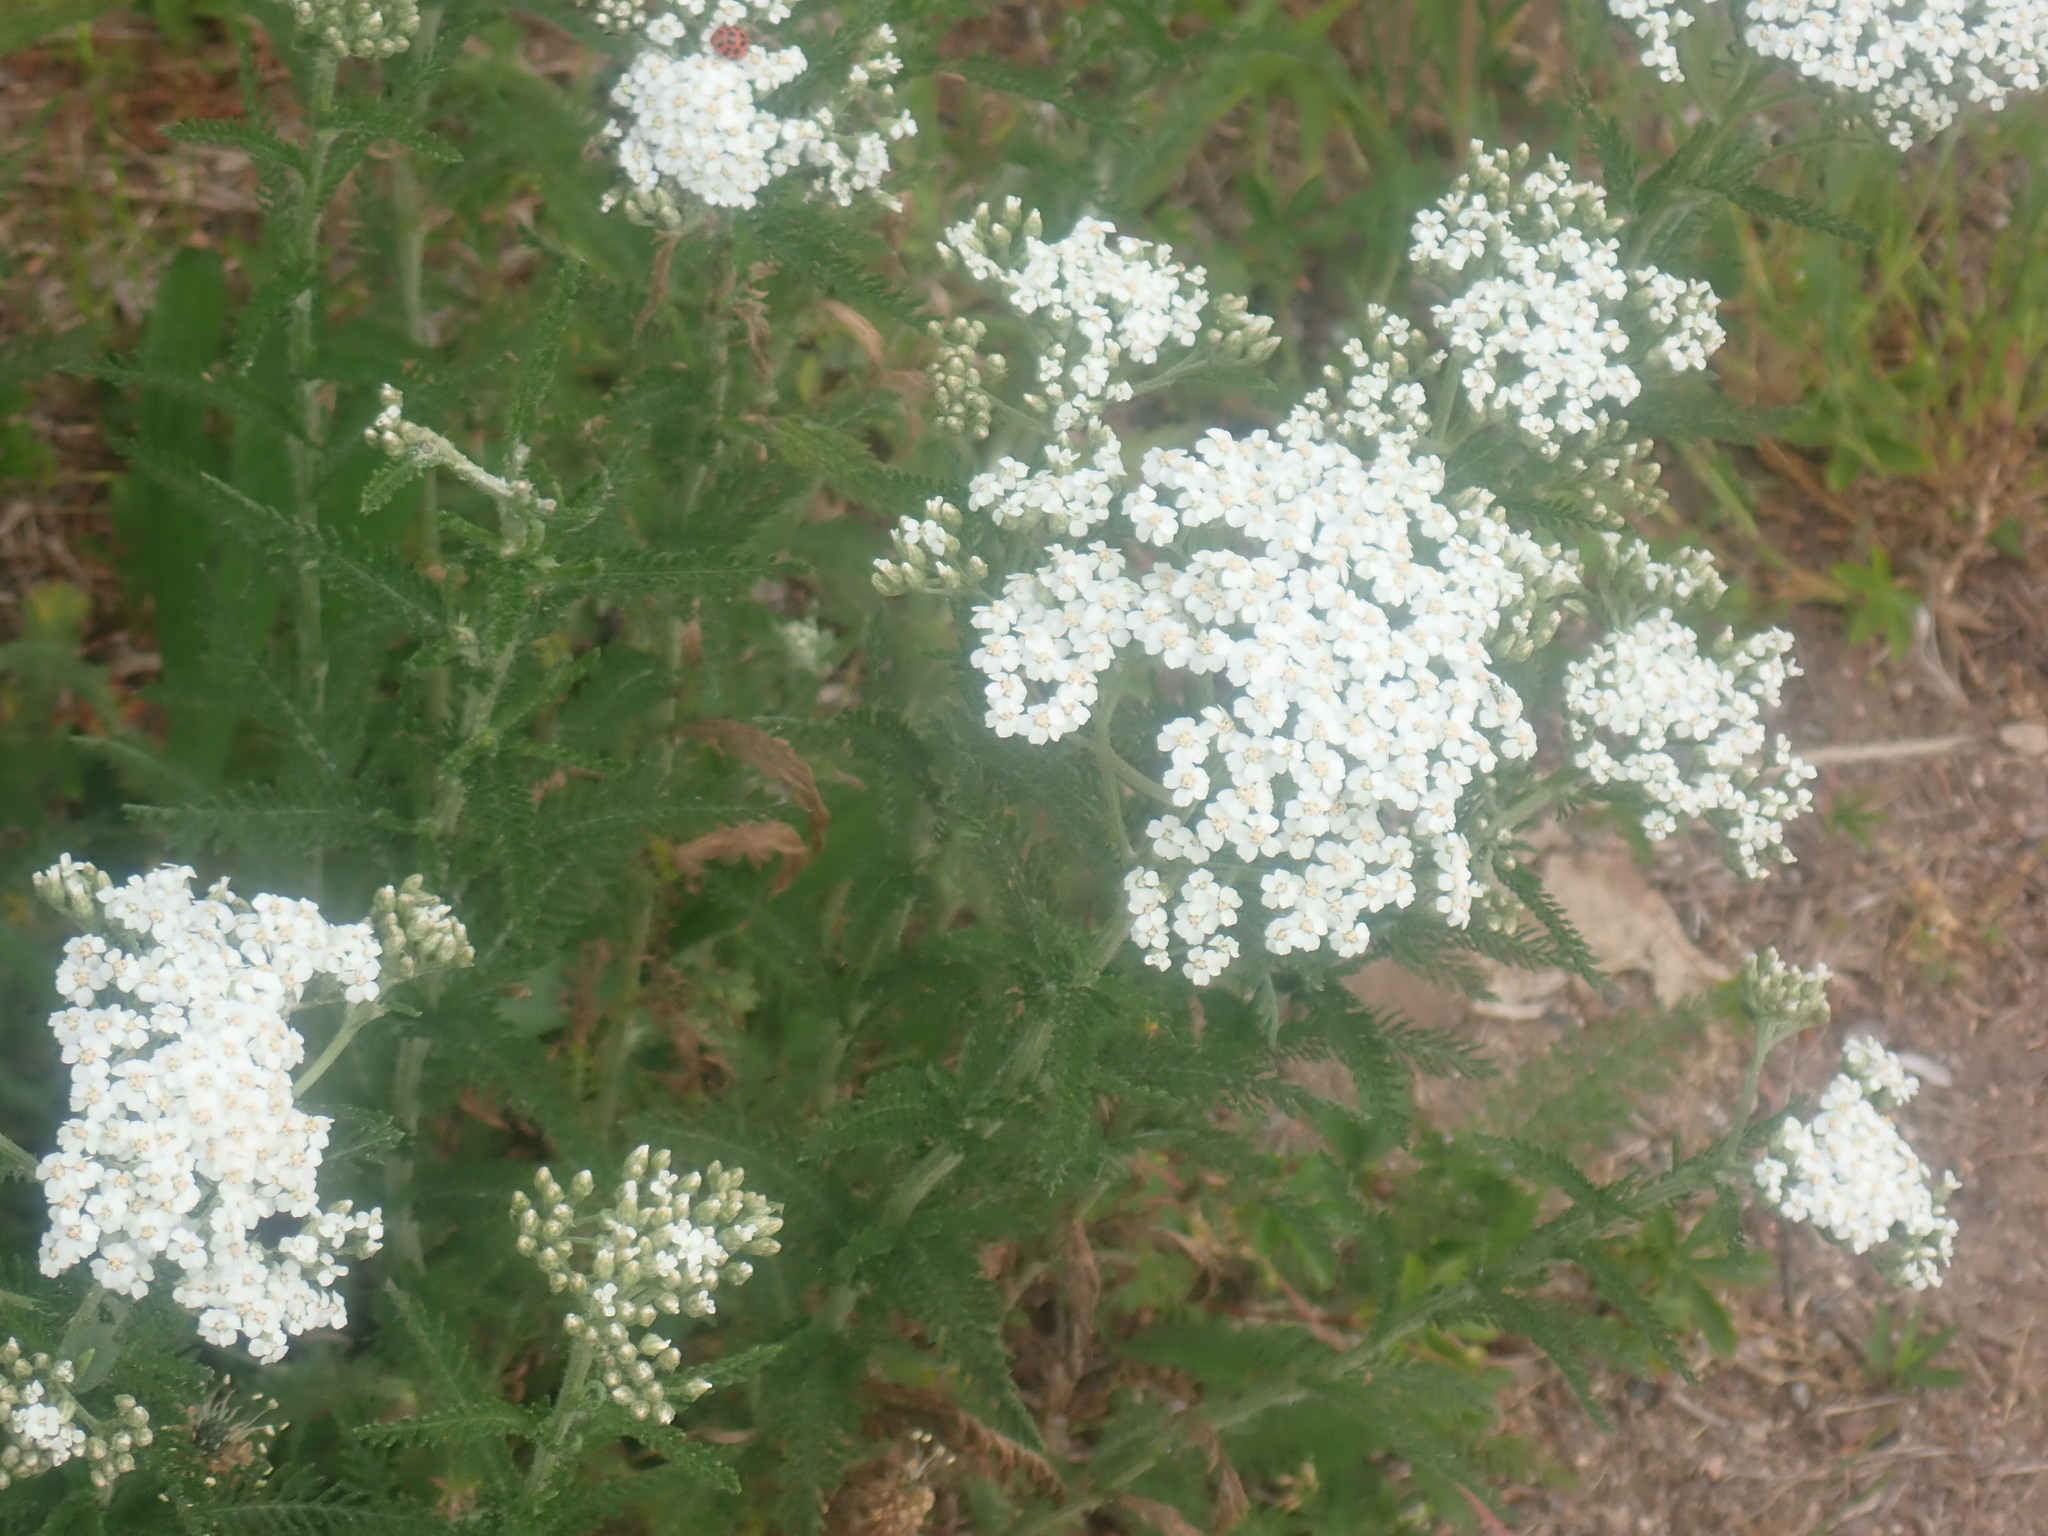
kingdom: Plantae
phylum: Tracheophyta
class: Magnoliopsida
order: Asterales
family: Asteraceae
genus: Achillea
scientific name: Achillea millefolium
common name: Yarrow
